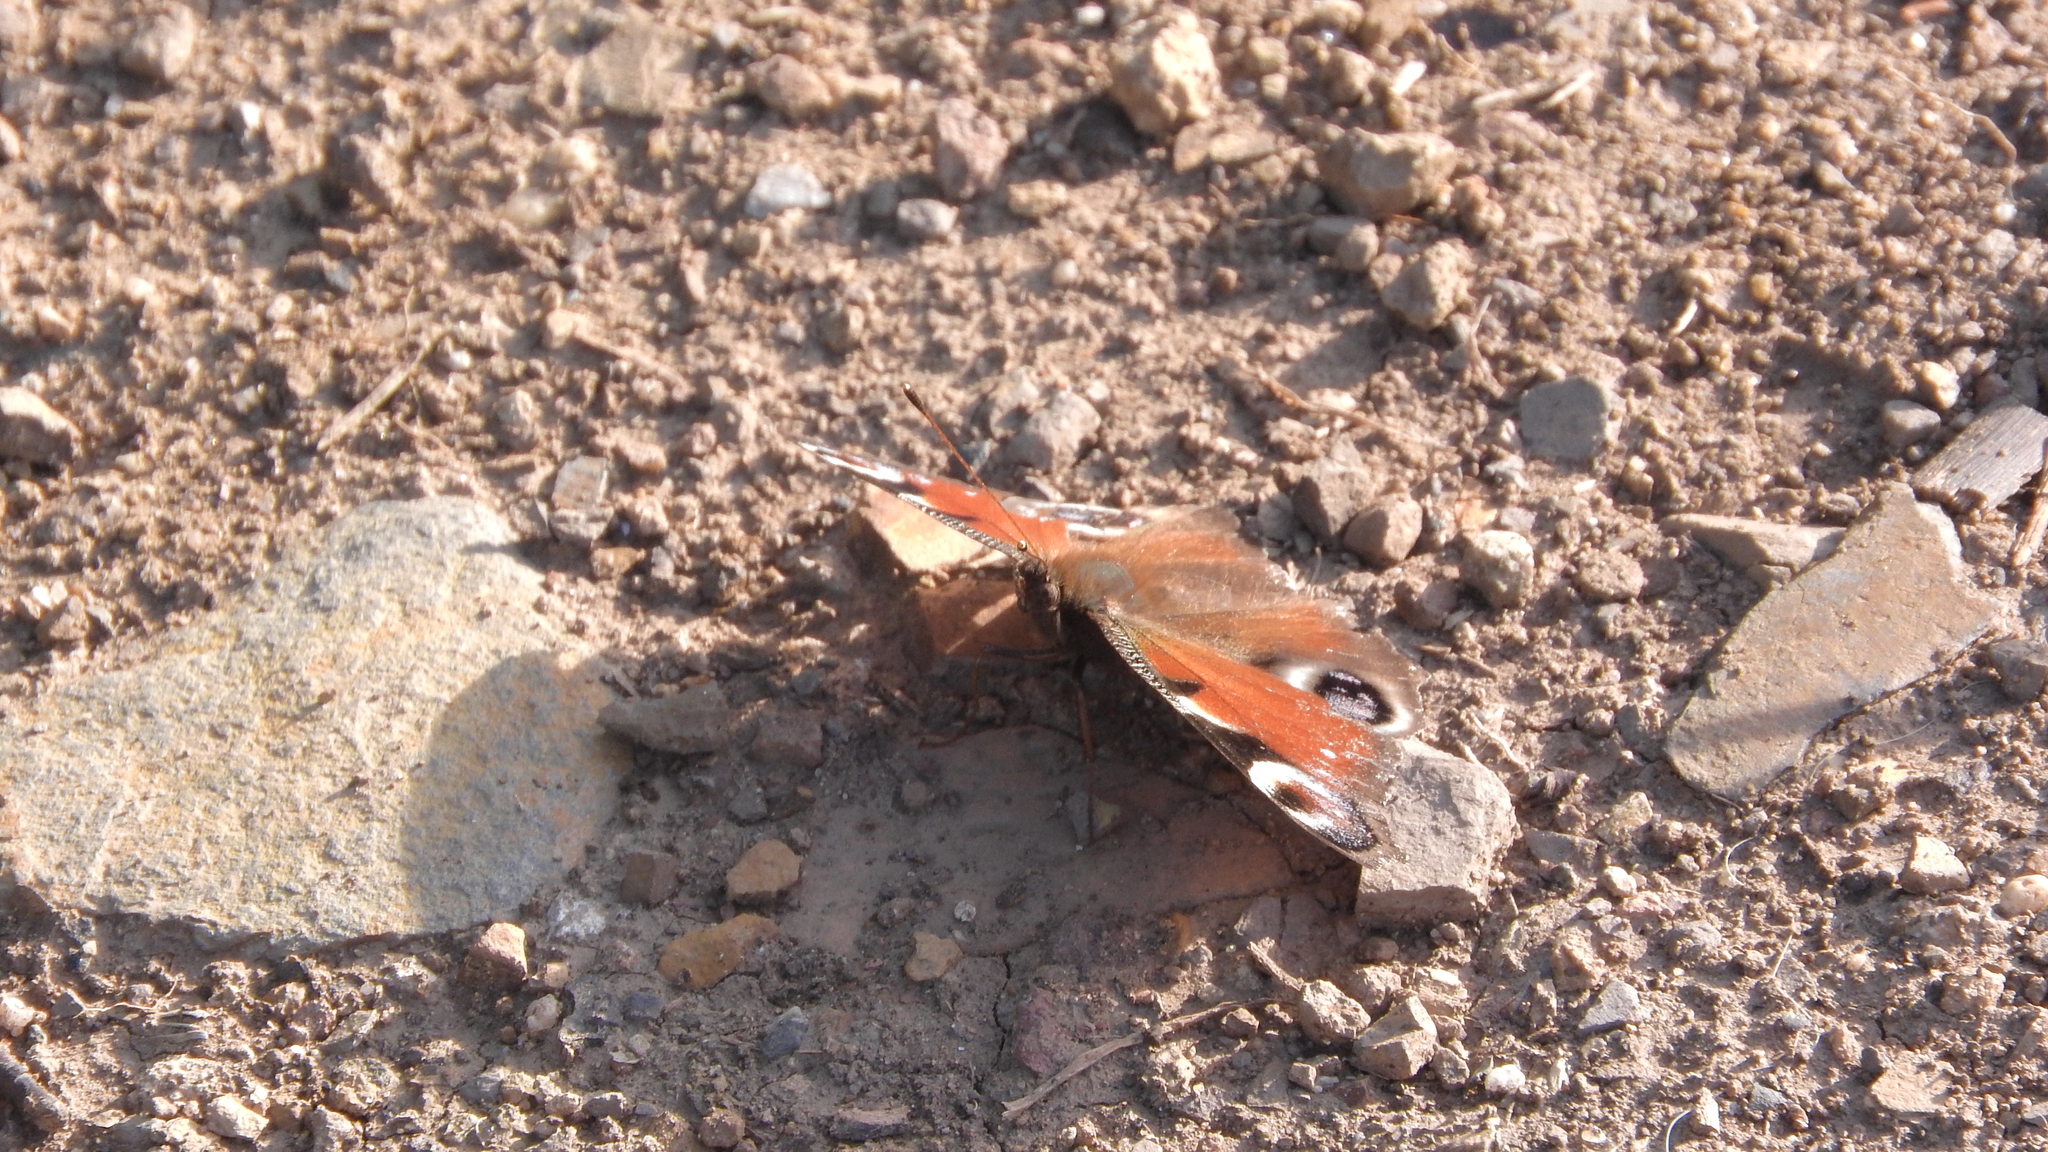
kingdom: Animalia
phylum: Arthropoda
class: Insecta
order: Lepidoptera
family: Nymphalidae
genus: Aglais
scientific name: Aglais io
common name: Peacock
